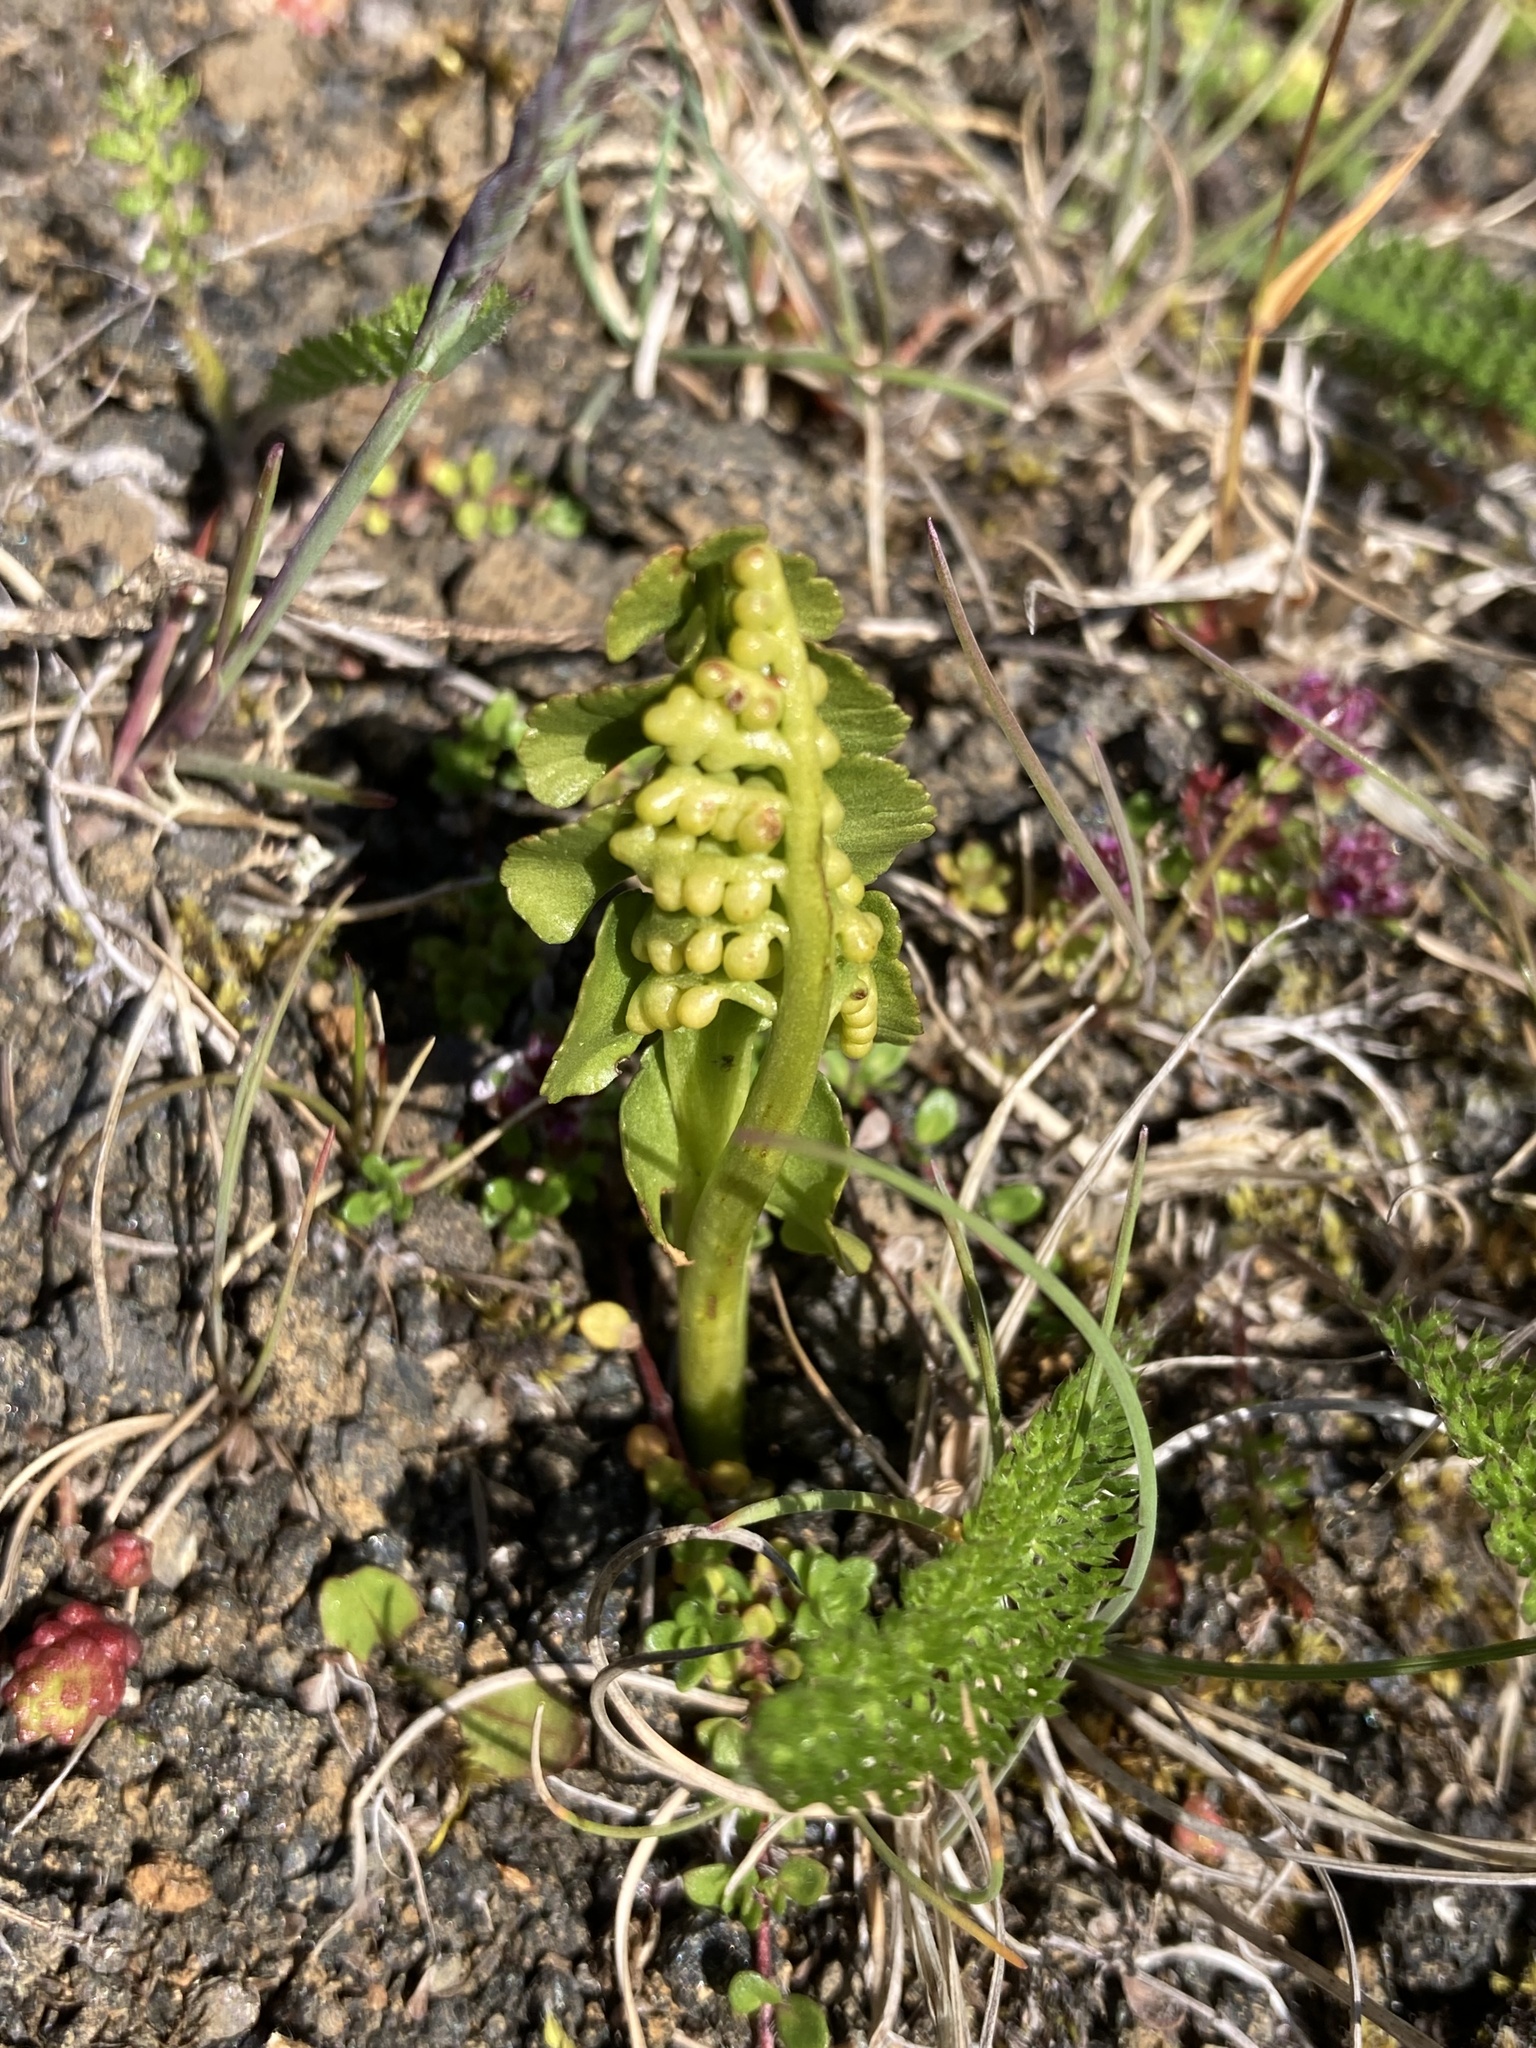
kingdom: Plantae
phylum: Tracheophyta
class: Polypodiopsida
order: Ophioglossales
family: Ophioglossaceae
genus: Botrychium
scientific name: Botrychium lunaria
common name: Moonwort
